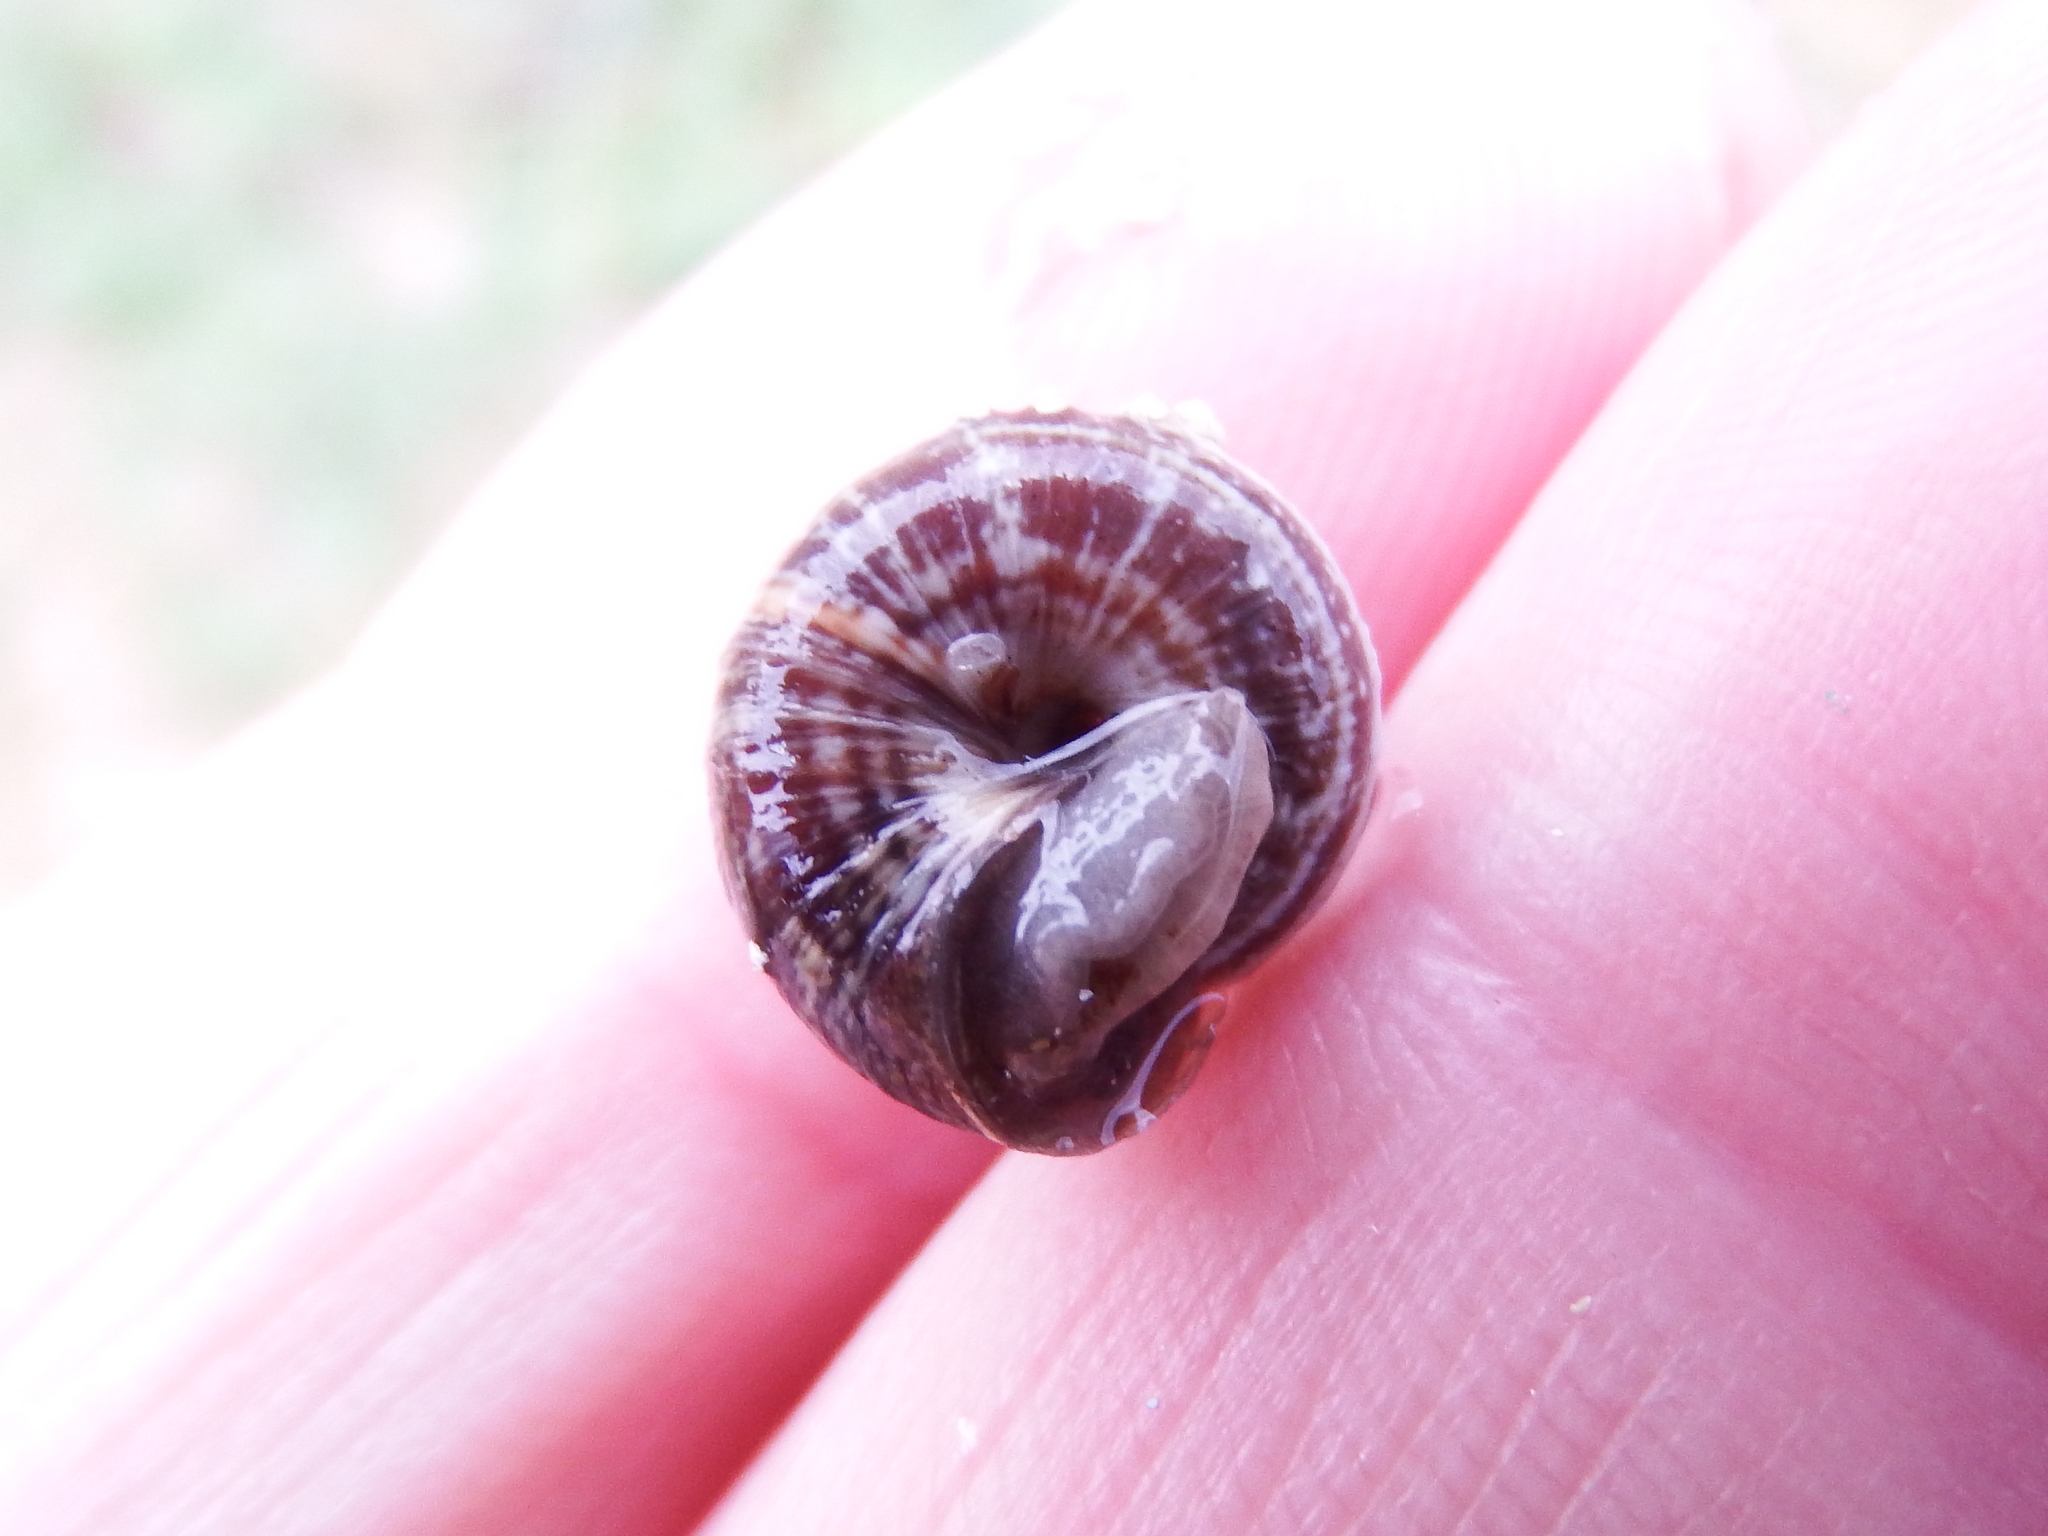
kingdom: Animalia
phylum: Mollusca
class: Gastropoda
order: Stylommatophora
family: Geomitridae
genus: Cernuella
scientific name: Cernuella virgata
